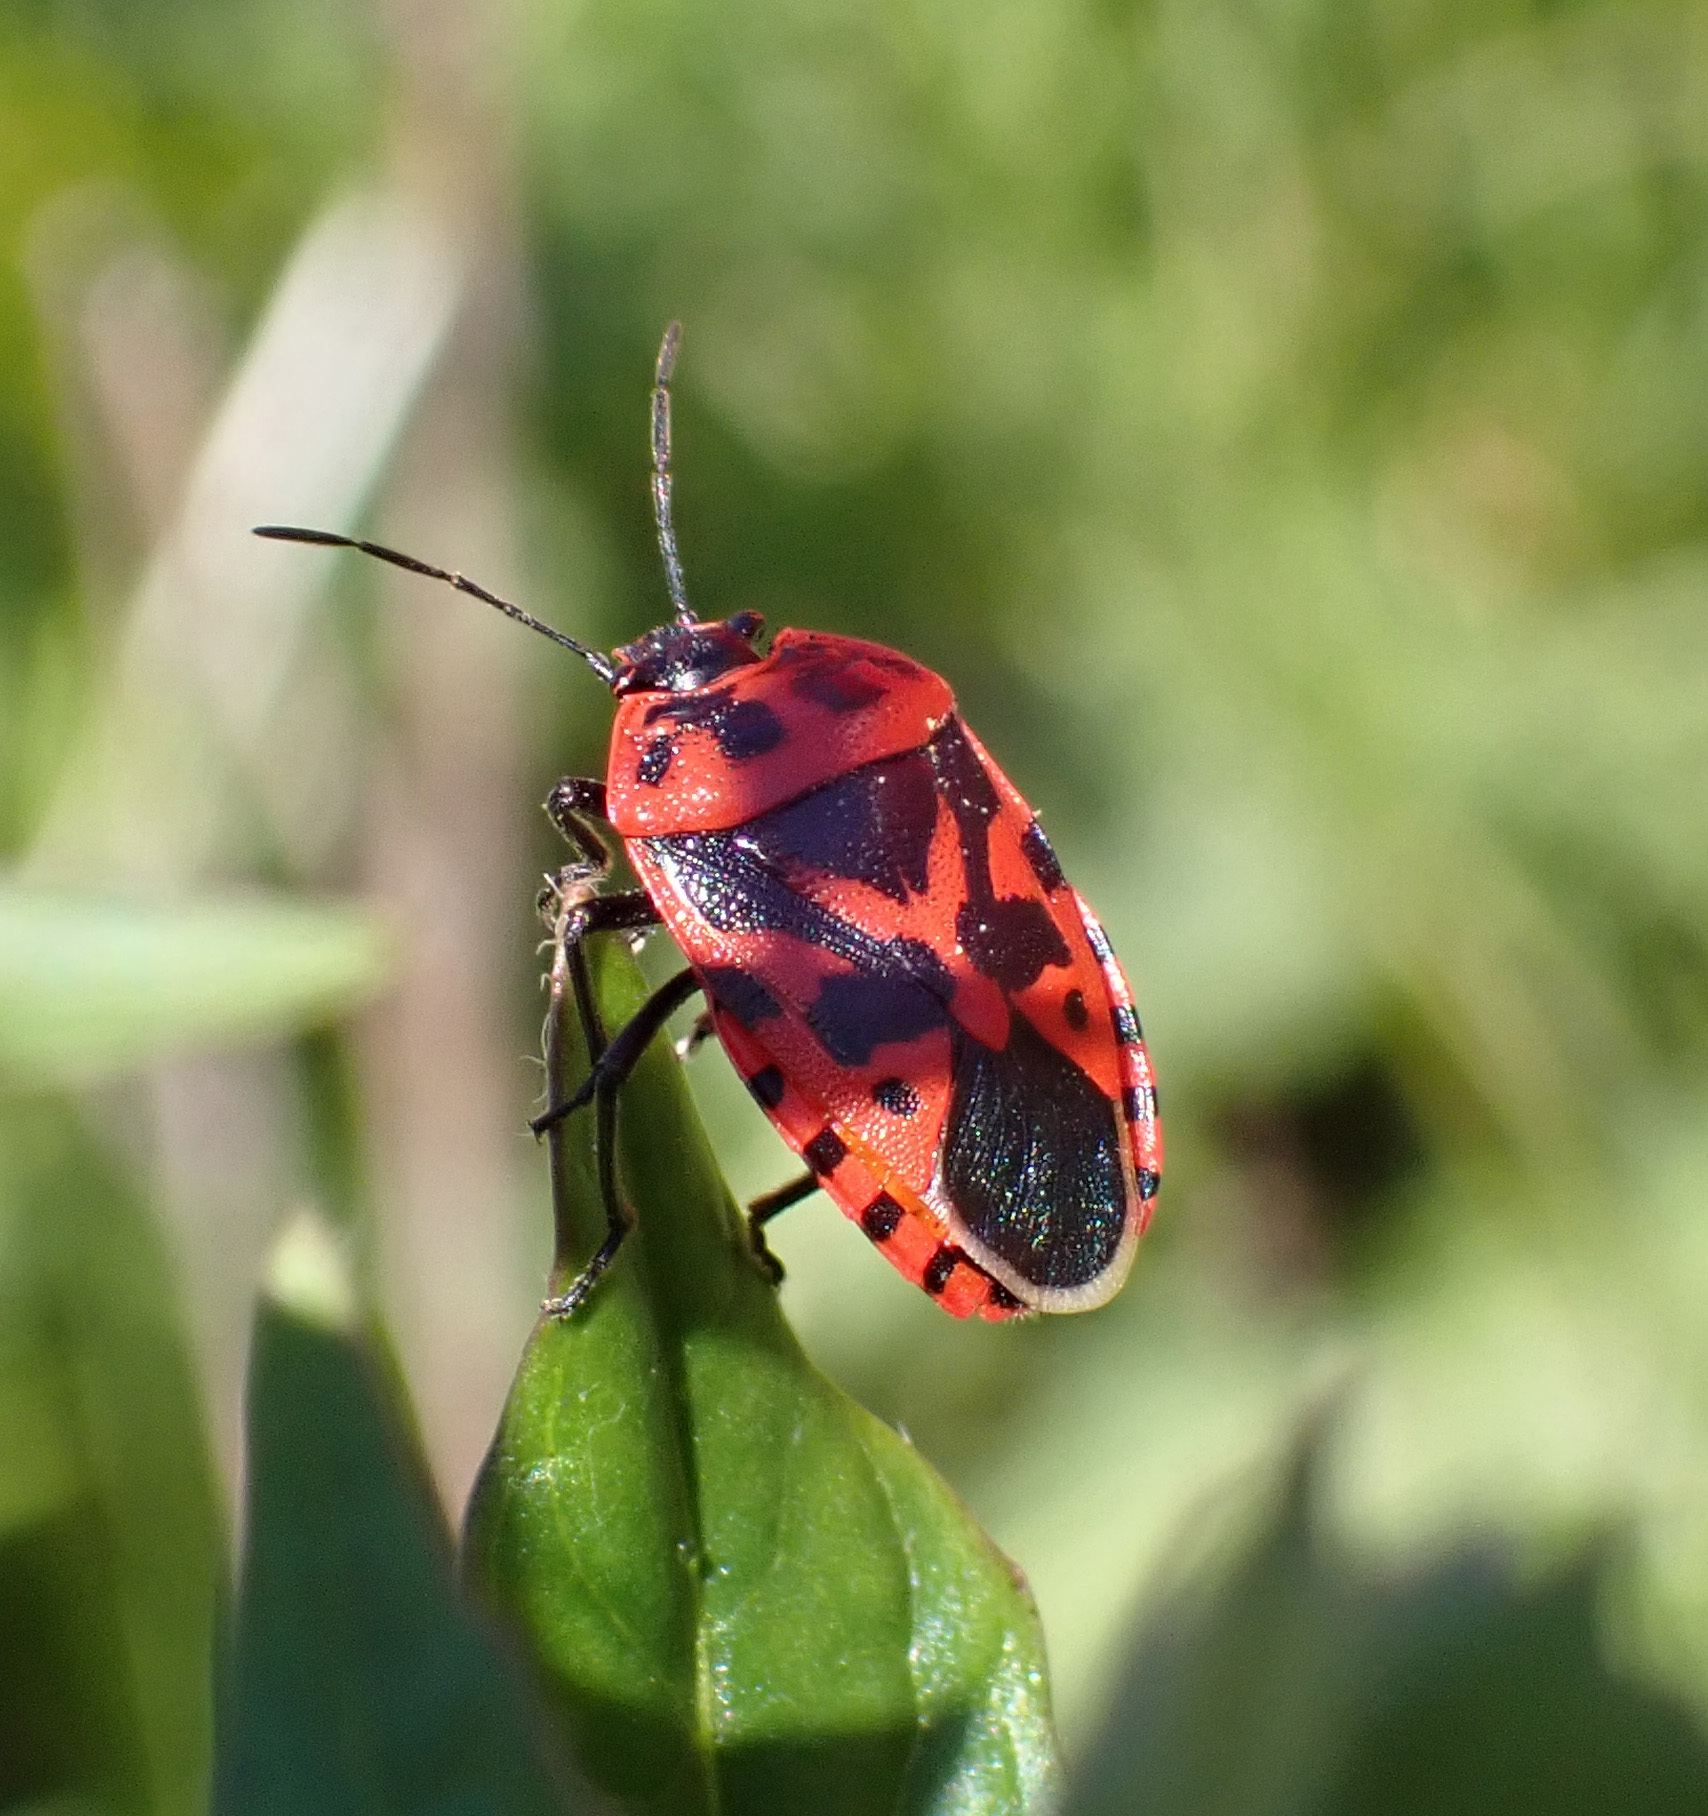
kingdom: Animalia
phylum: Arthropoda
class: Insecta
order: Hemiptera
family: Pentatomidae
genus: Eurydema
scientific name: Eurydema ventralis
